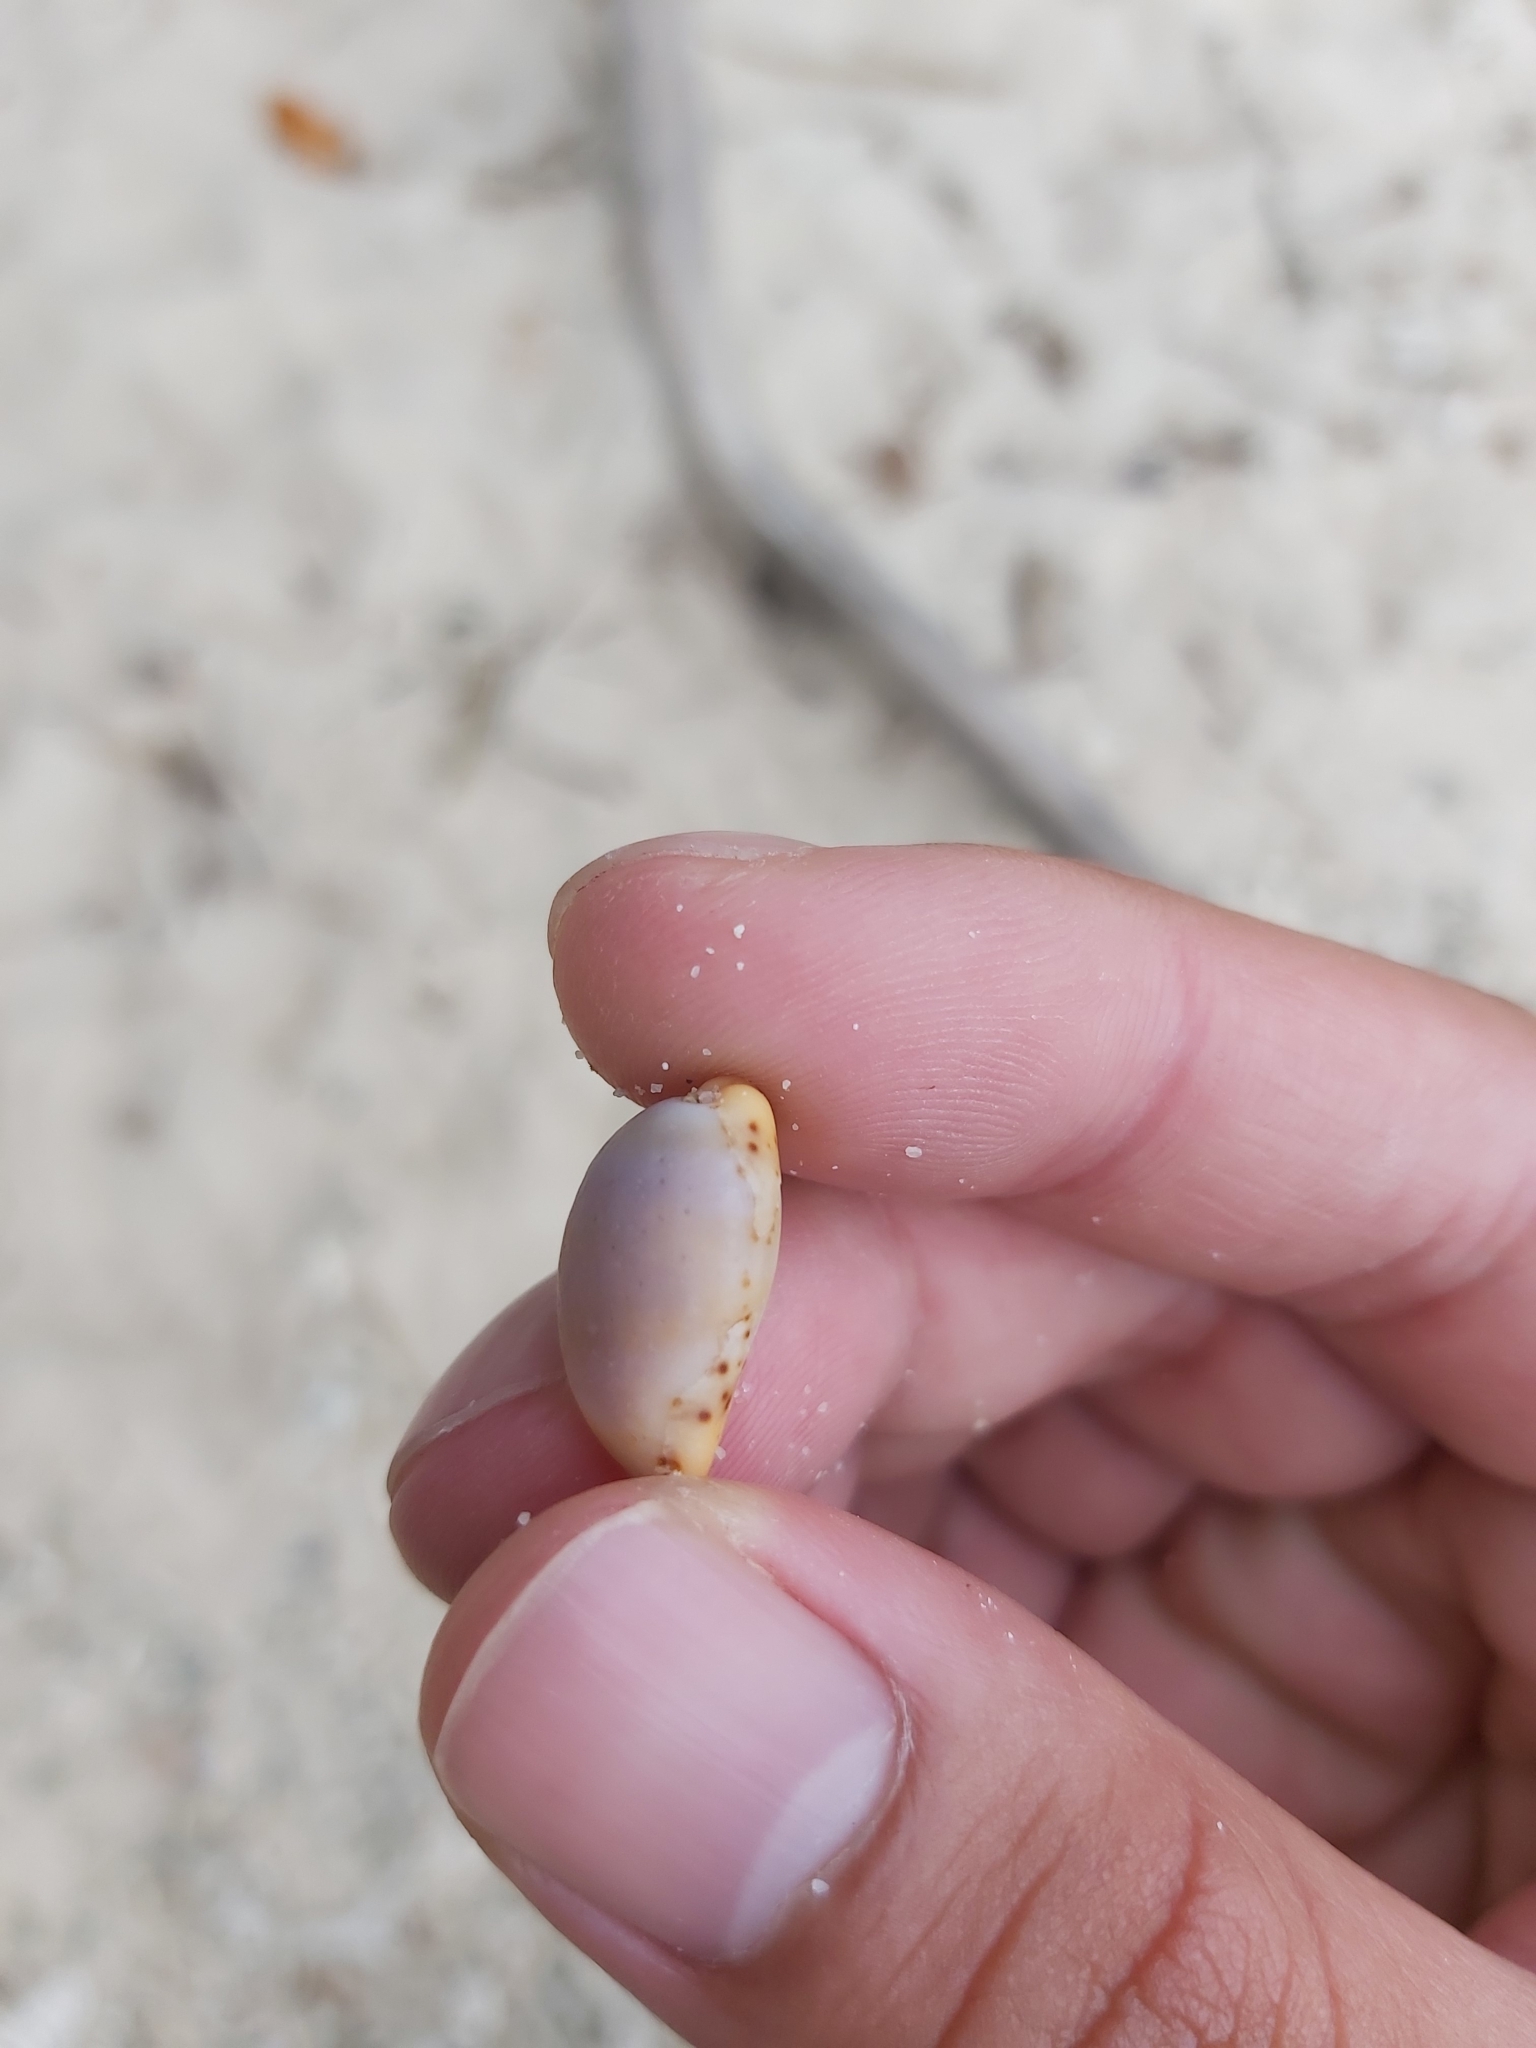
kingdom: Animalia
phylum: Mollusca
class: Gastropoda
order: Littorinimorpha
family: Cypraeidae
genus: Palmadusta
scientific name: Palmadusta humphreyii
